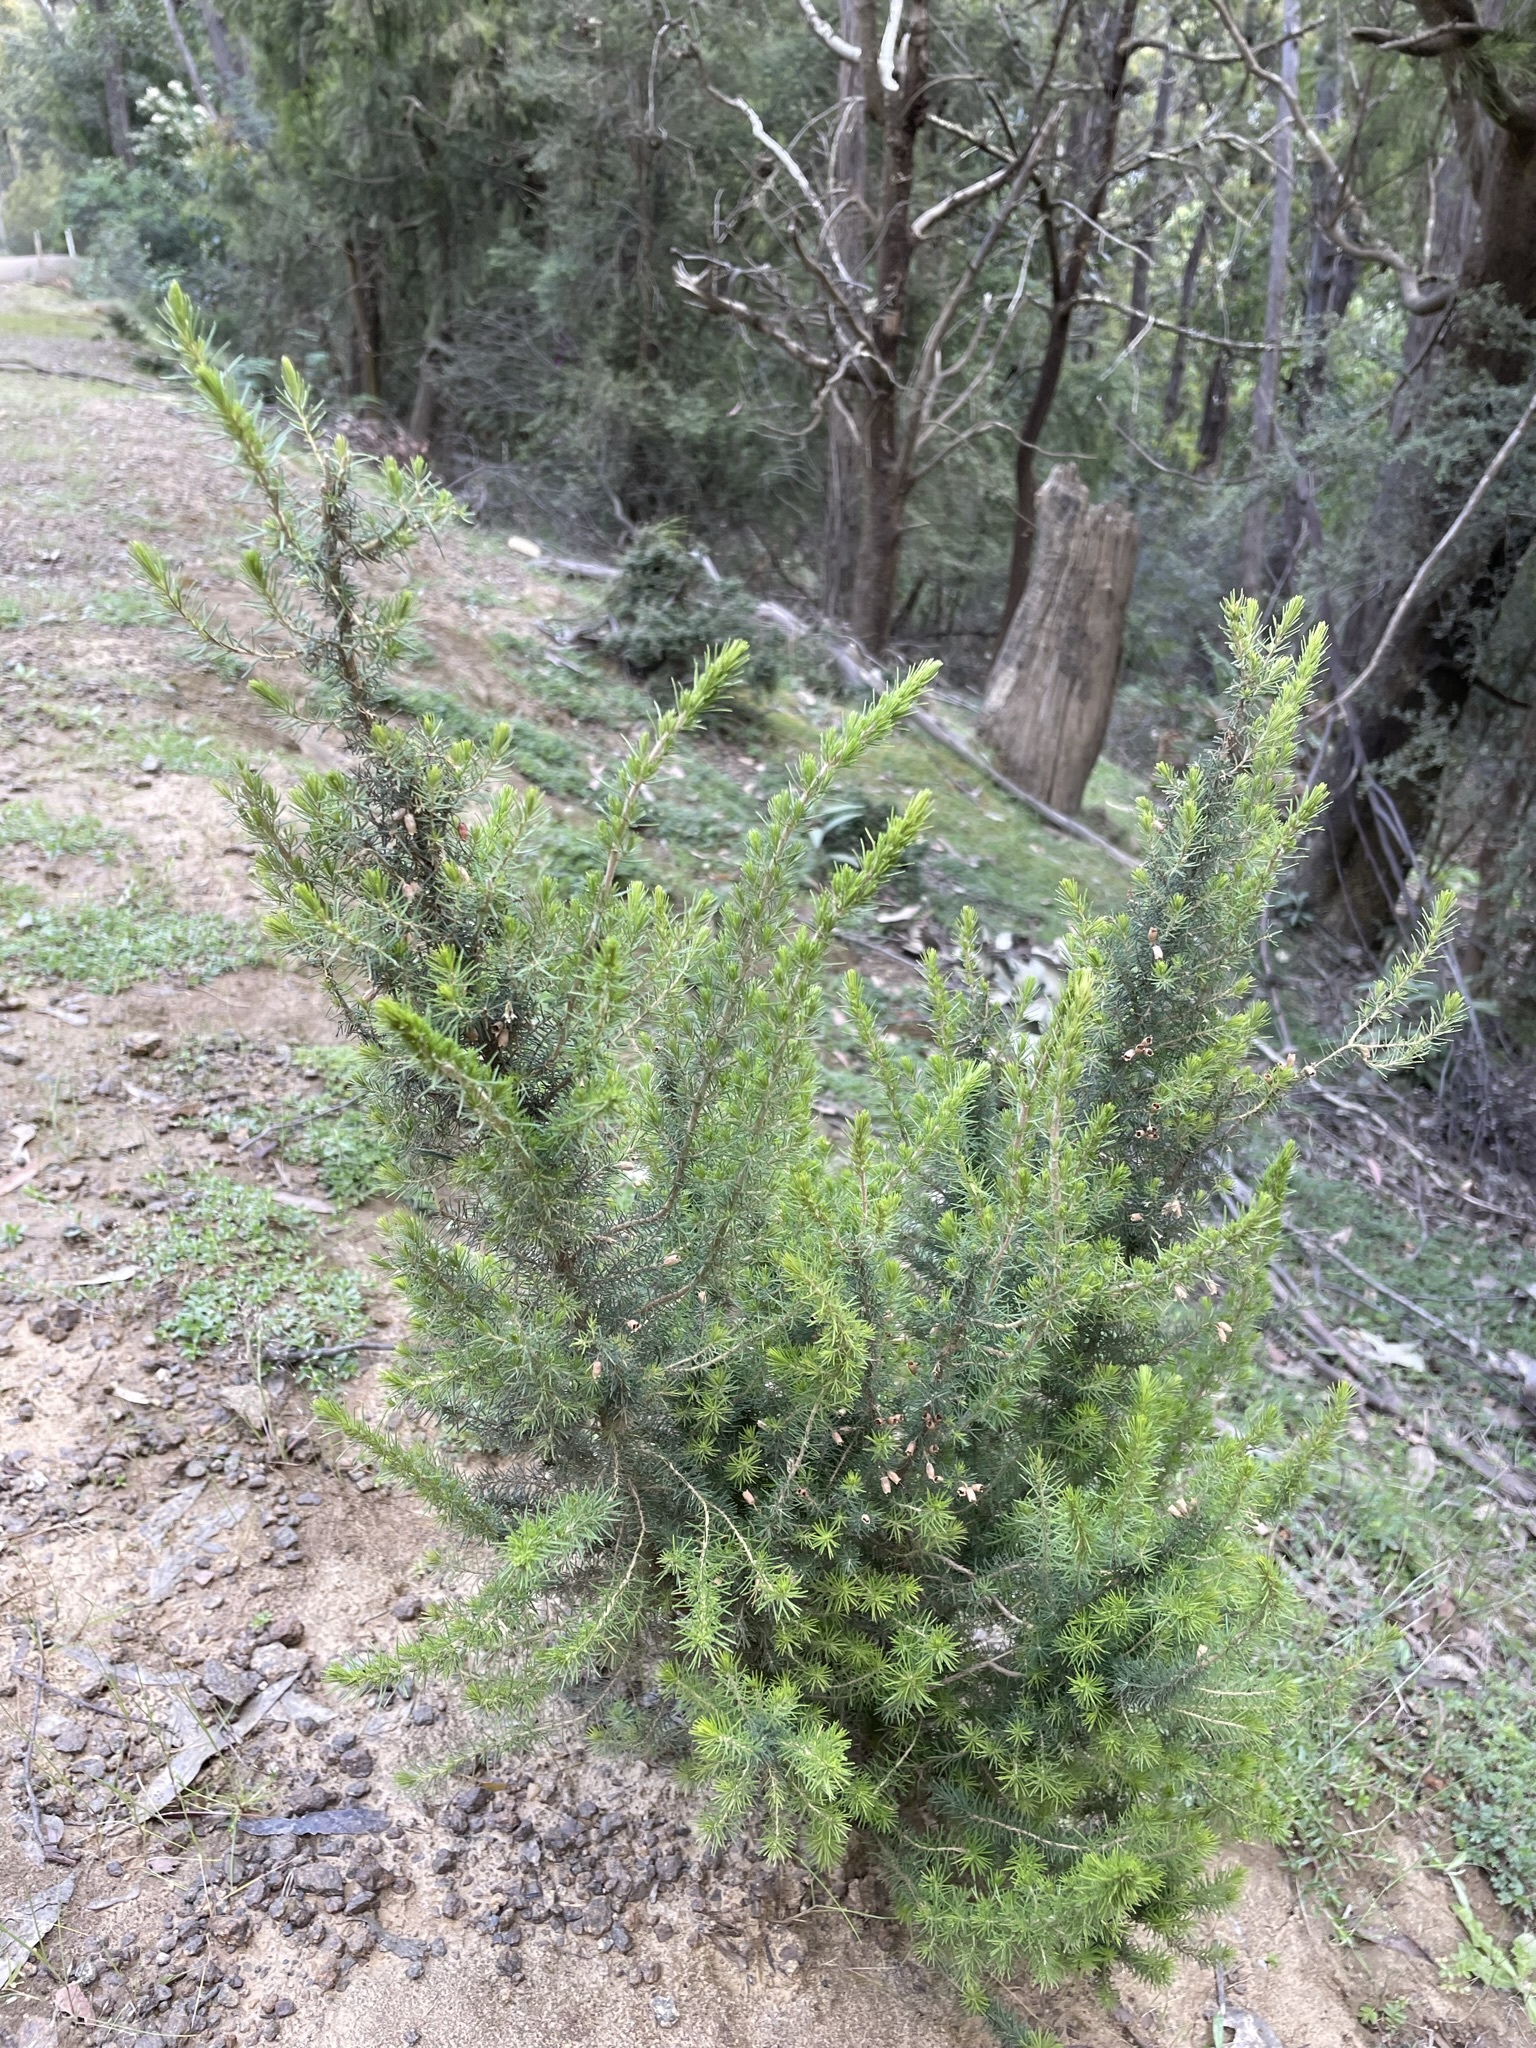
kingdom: Plantae
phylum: Tracheophyta
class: Magnoliopsida
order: Ericales
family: Ericaceae
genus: Erica
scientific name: Erica lusitanica
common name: Spanish heath
